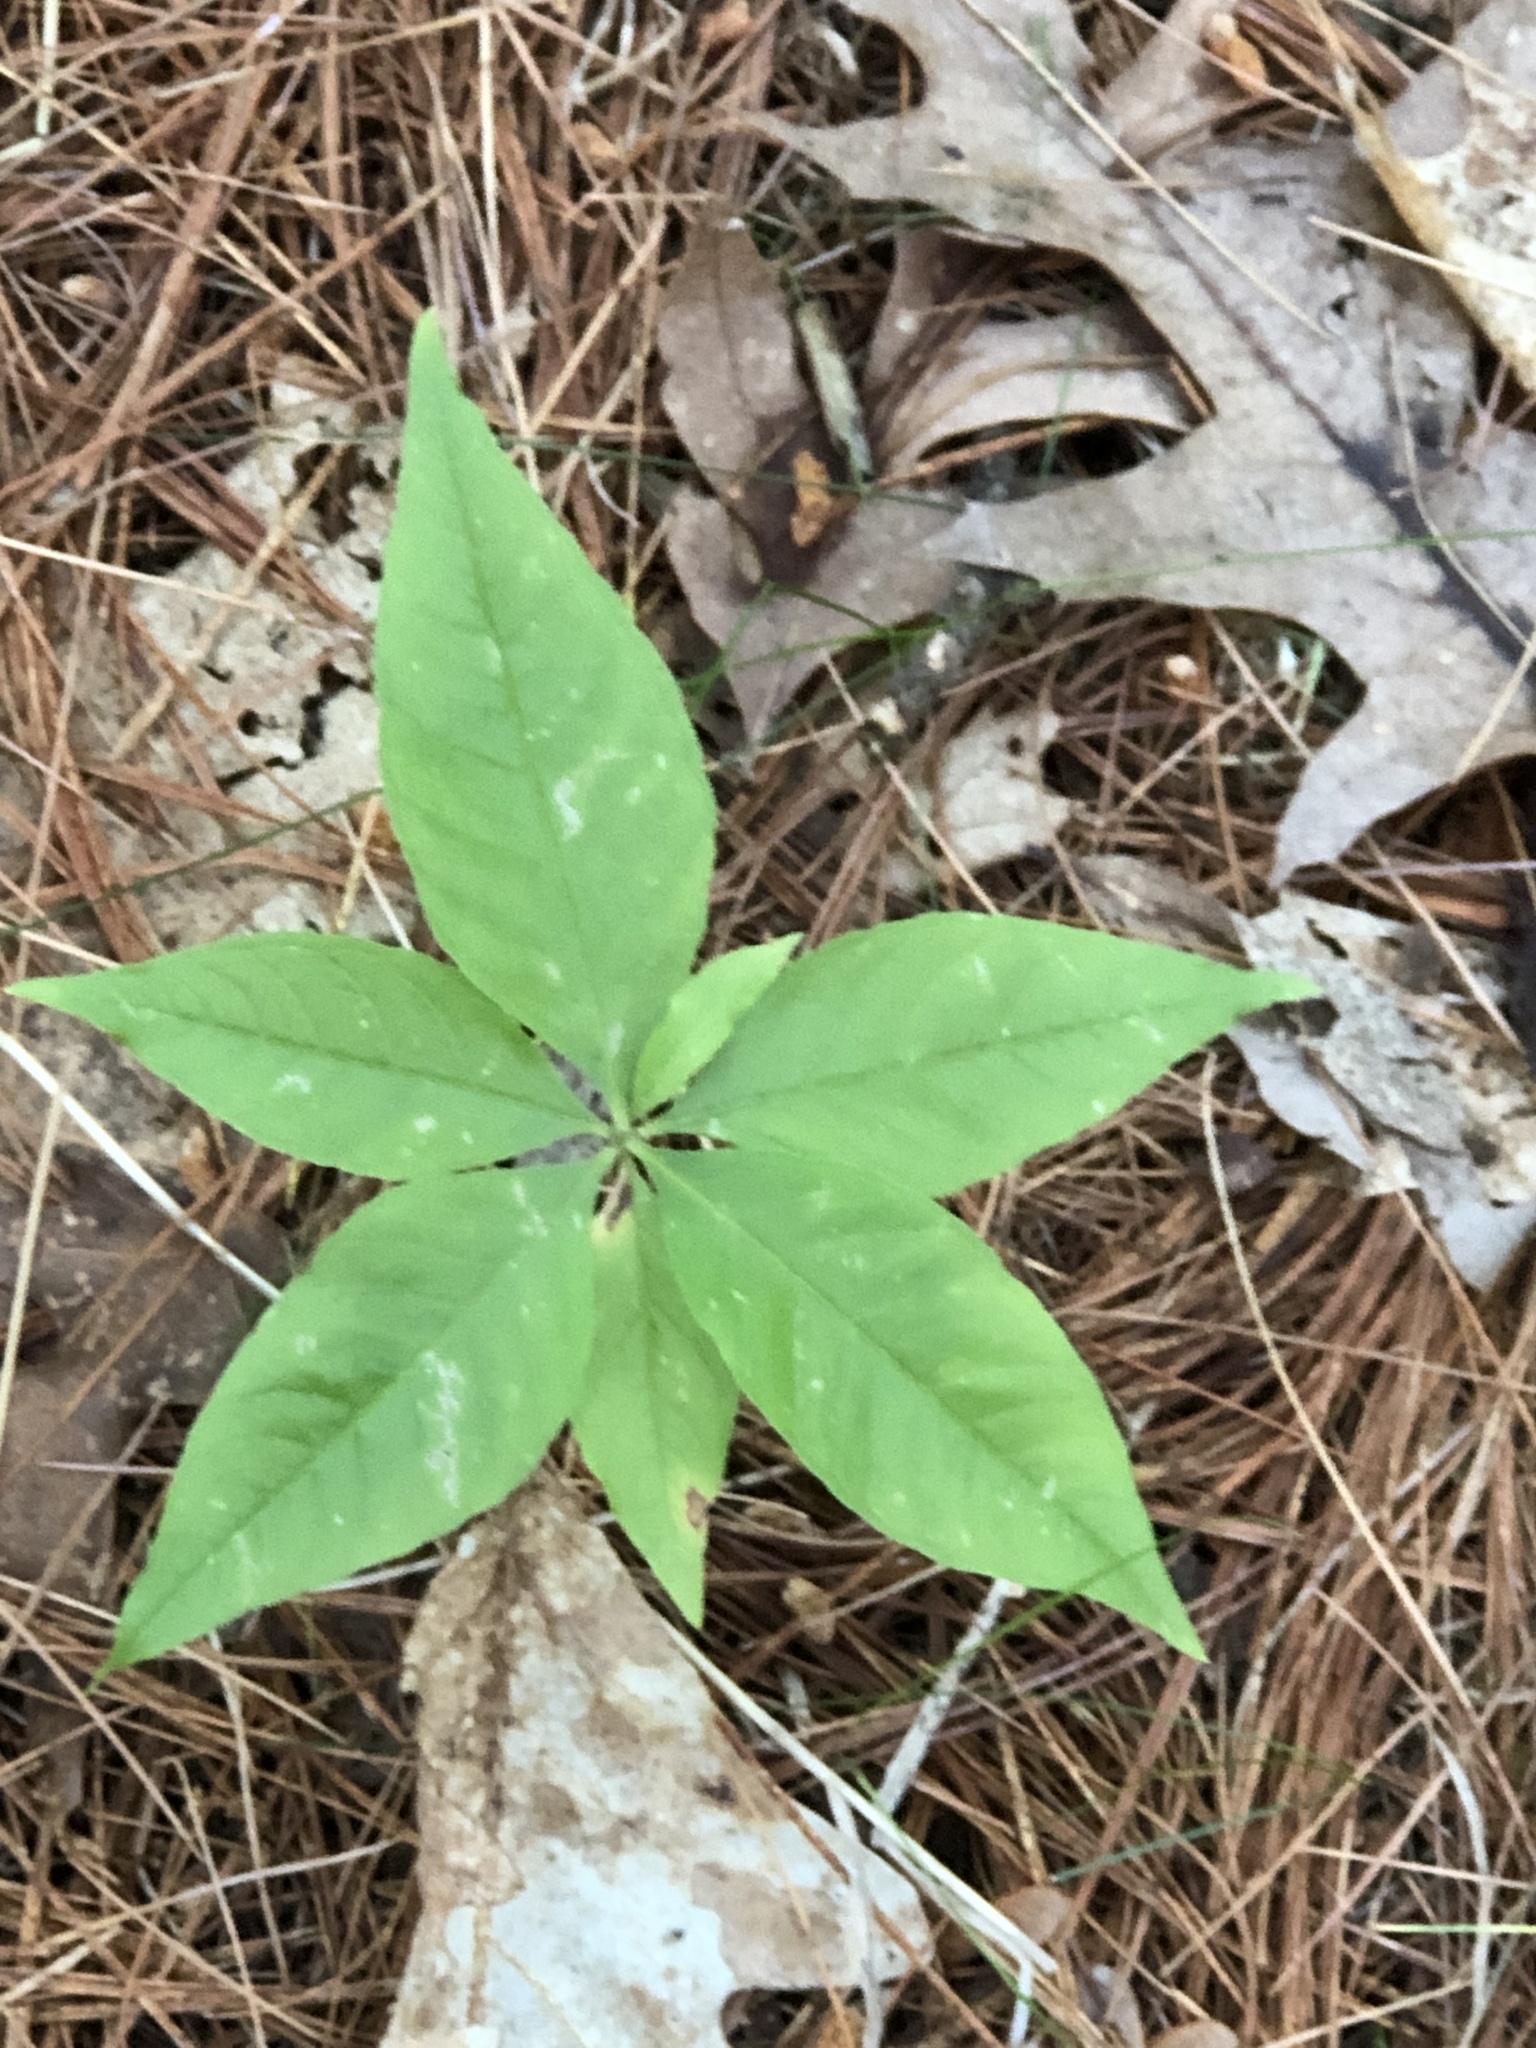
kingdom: Plantae
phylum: Tracheophyta
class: Magnoliopsida
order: Ericales
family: Primulaceae
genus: Lysimachia
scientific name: Lysimachia borealis
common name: American starflower
